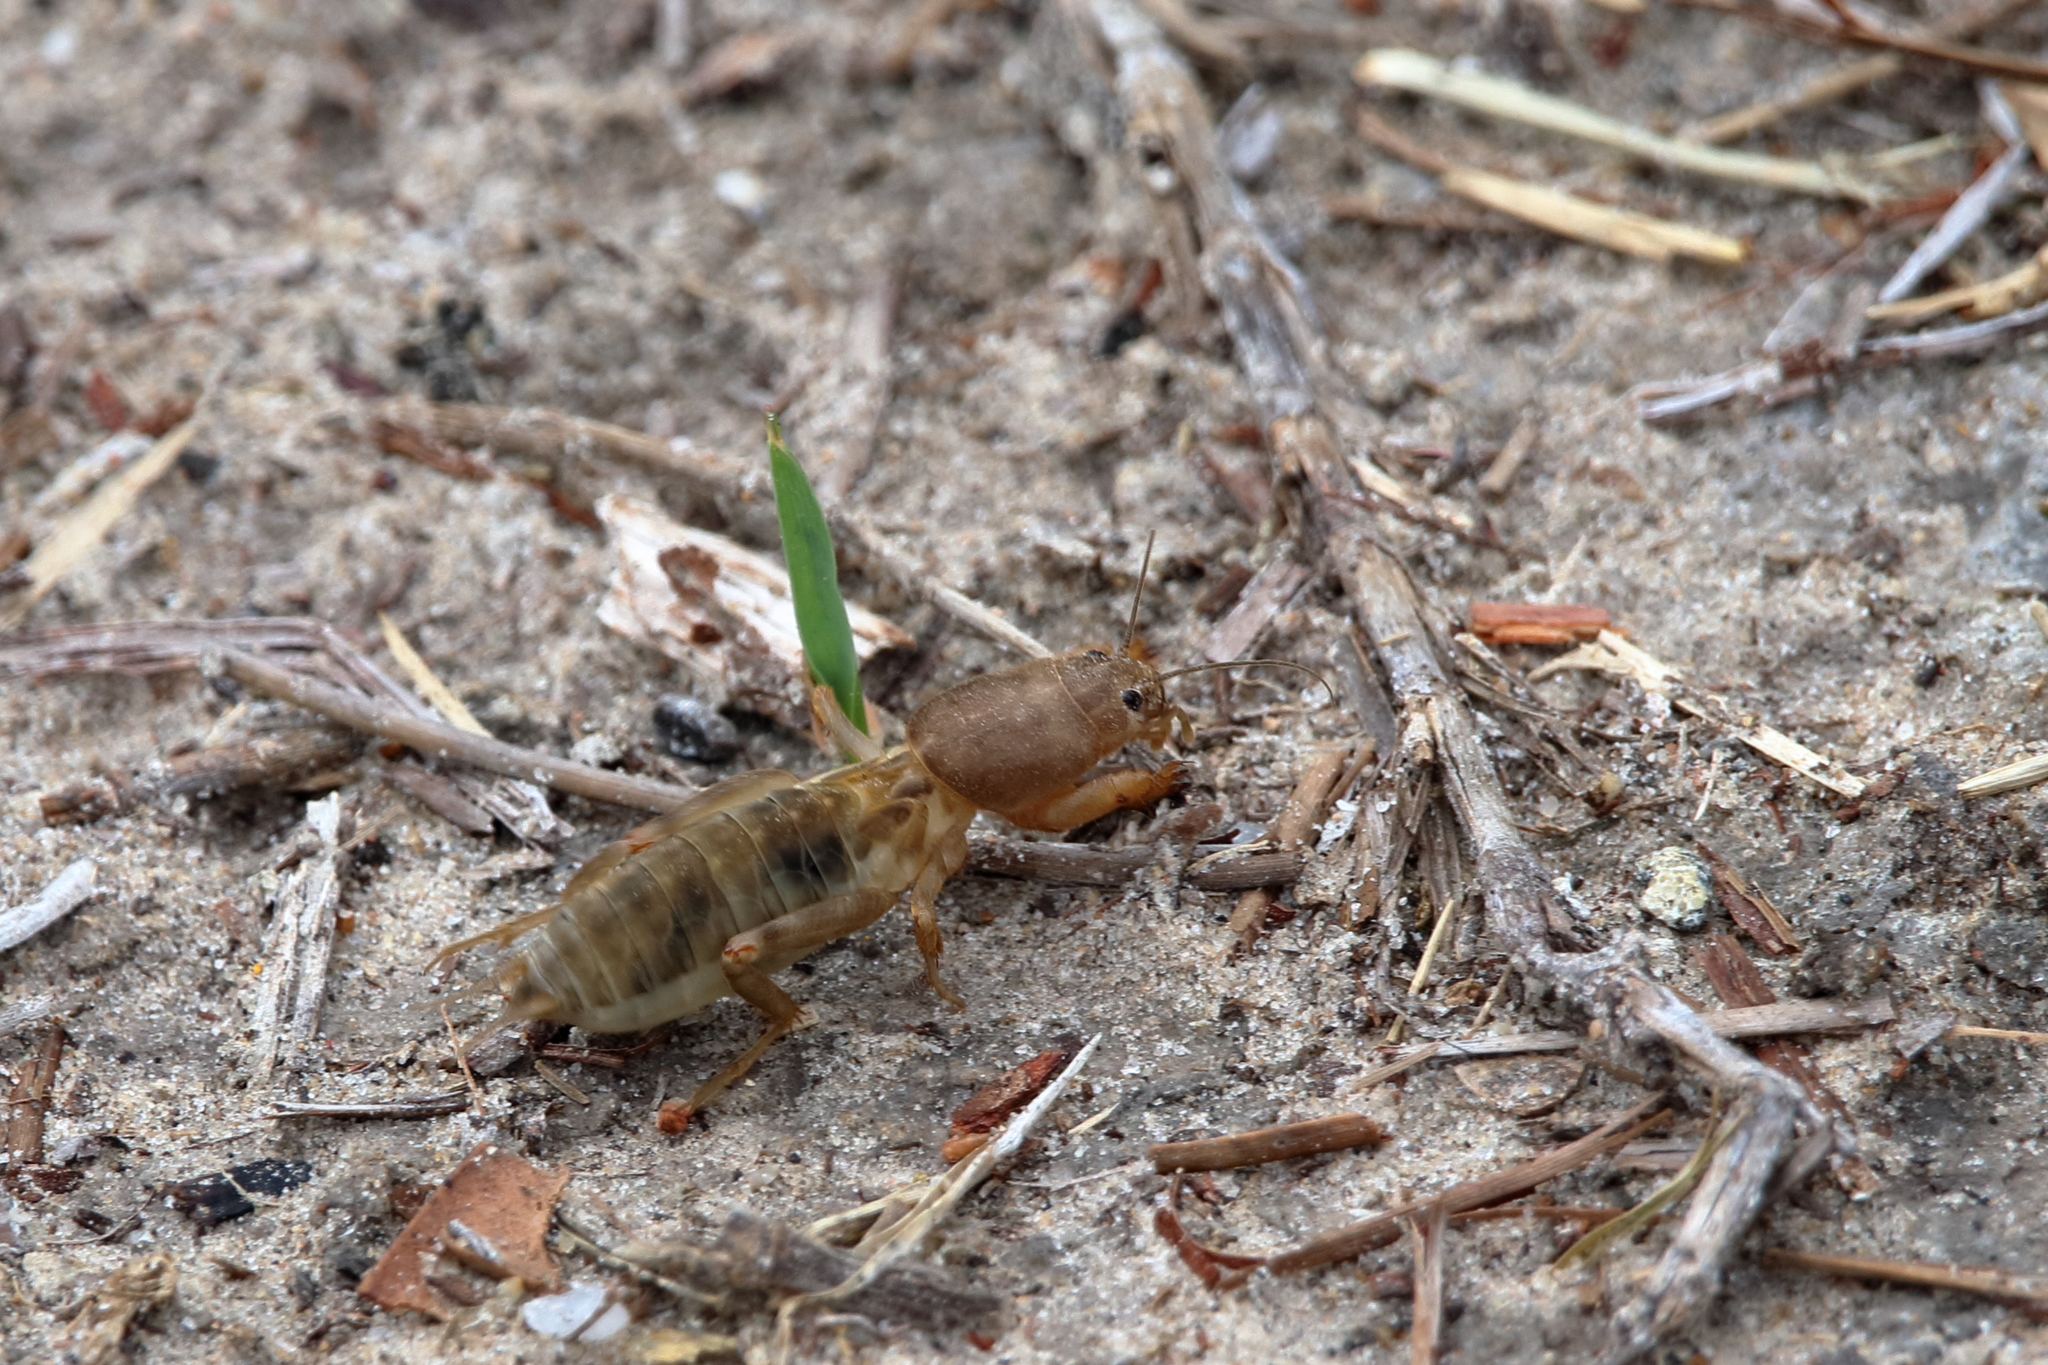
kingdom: Animalia
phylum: Arthropoda
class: Insecta
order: Orthoptera
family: Gryllotalpidae
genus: Neoscapteriscus
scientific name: Neoscapteriscus vicinus
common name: Tawny mole cricket
